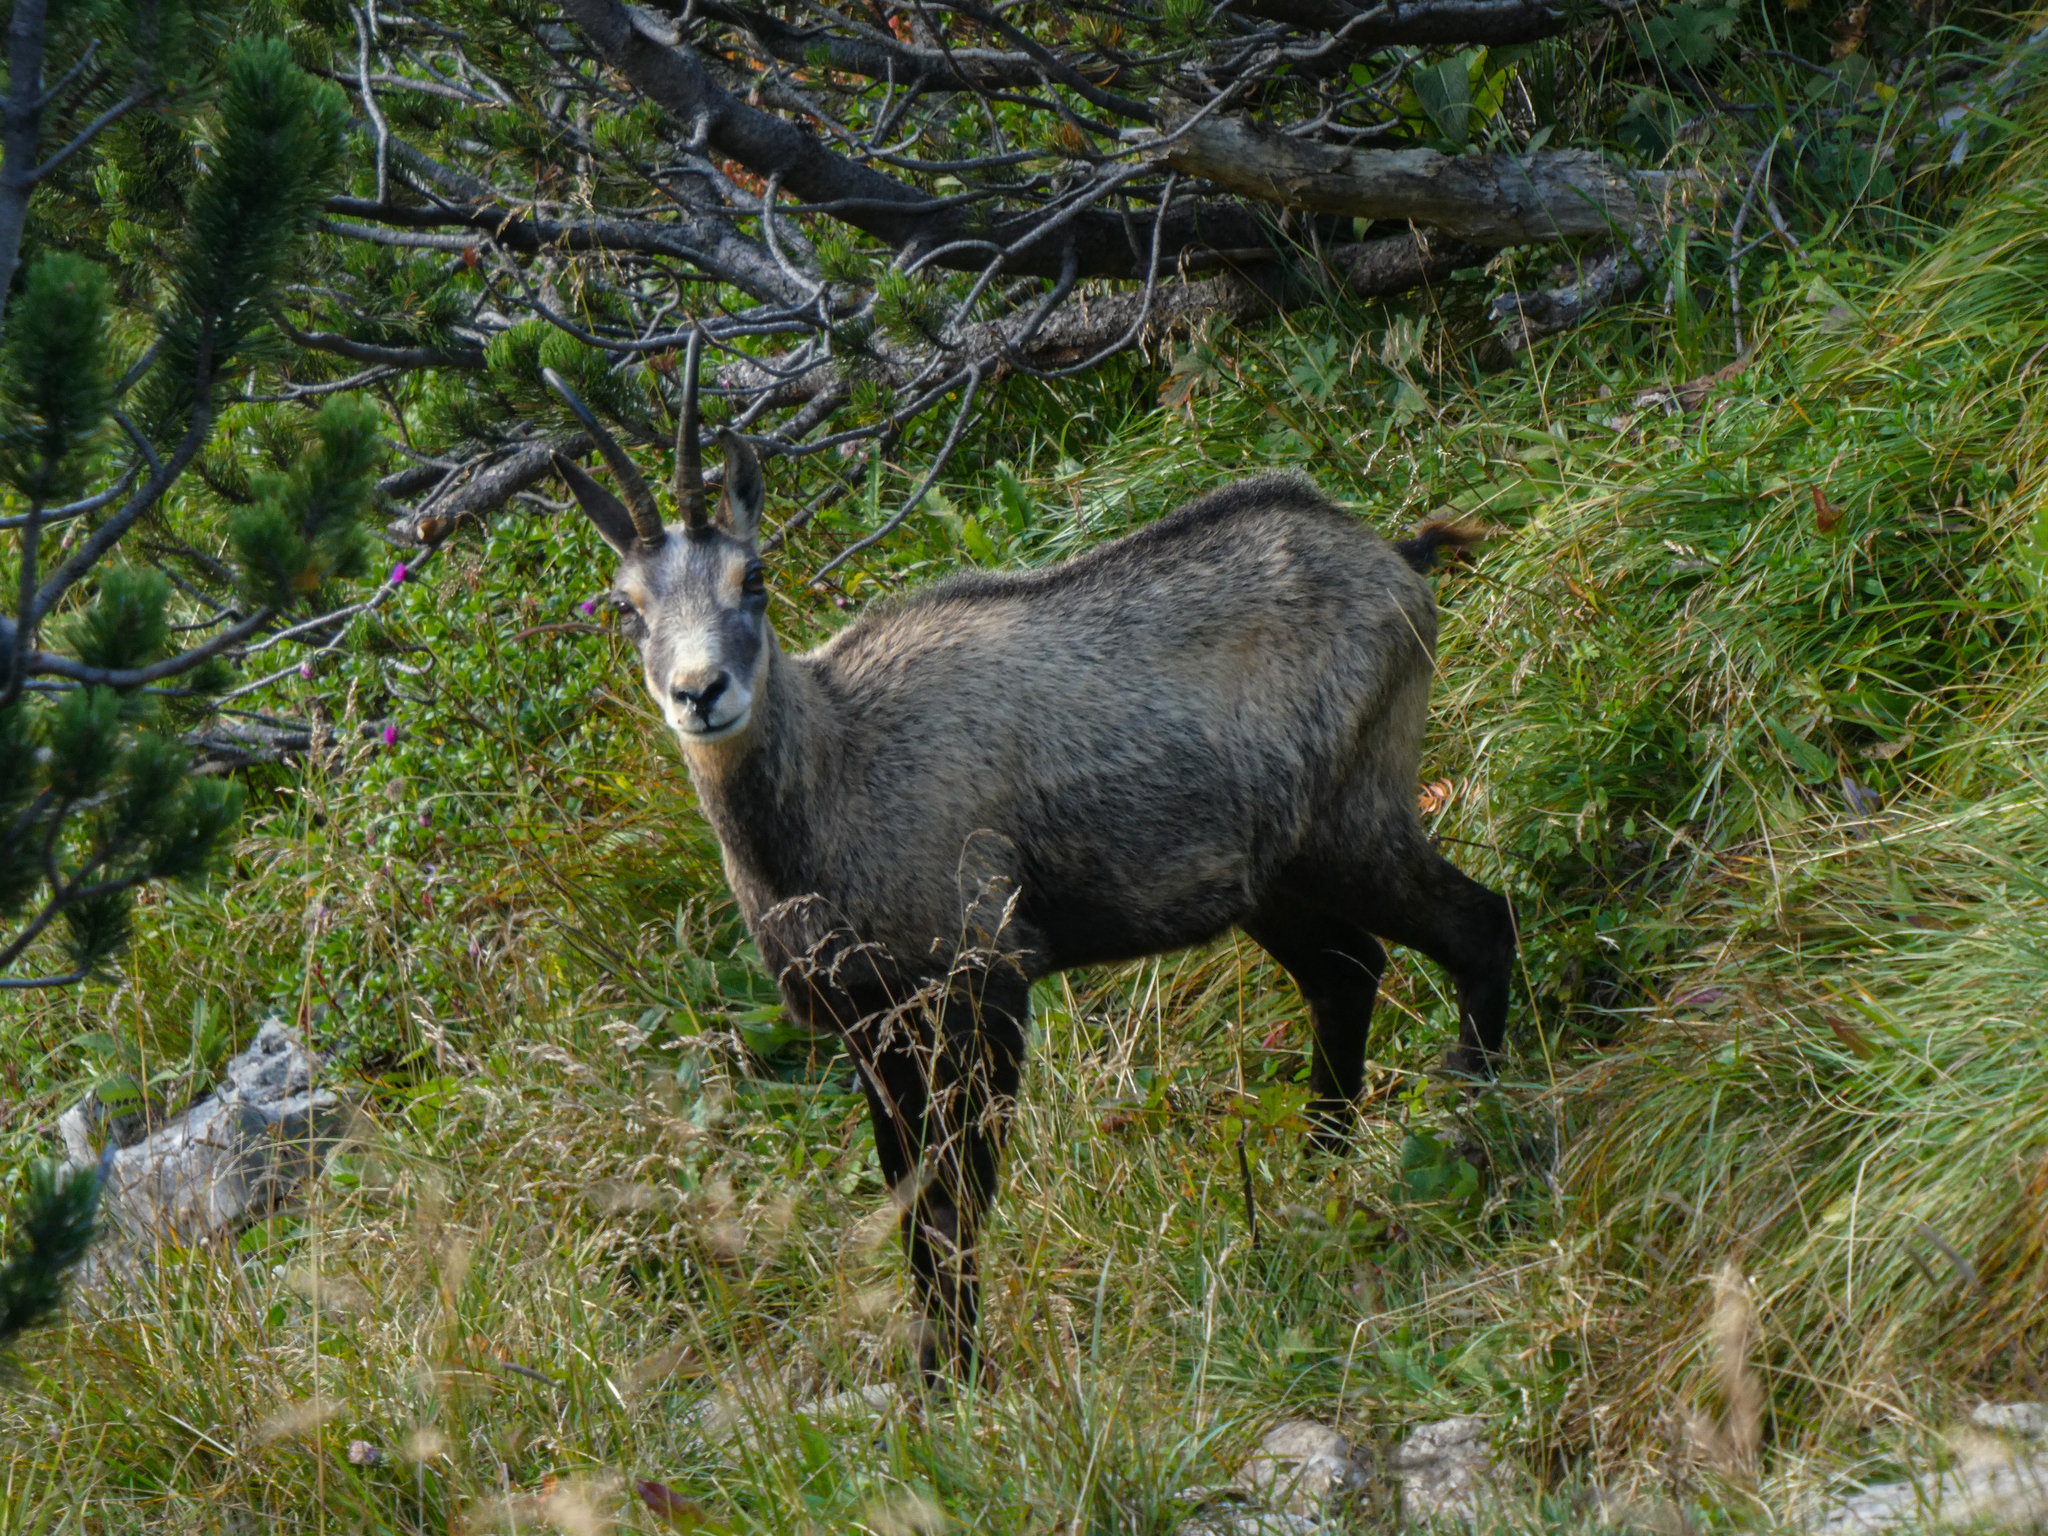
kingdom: Animalia
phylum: Chordata
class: Mammalia
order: Artiodactyla
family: Bovidae
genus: Rupicapra
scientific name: Rupicapra rupicapra
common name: Chamois
